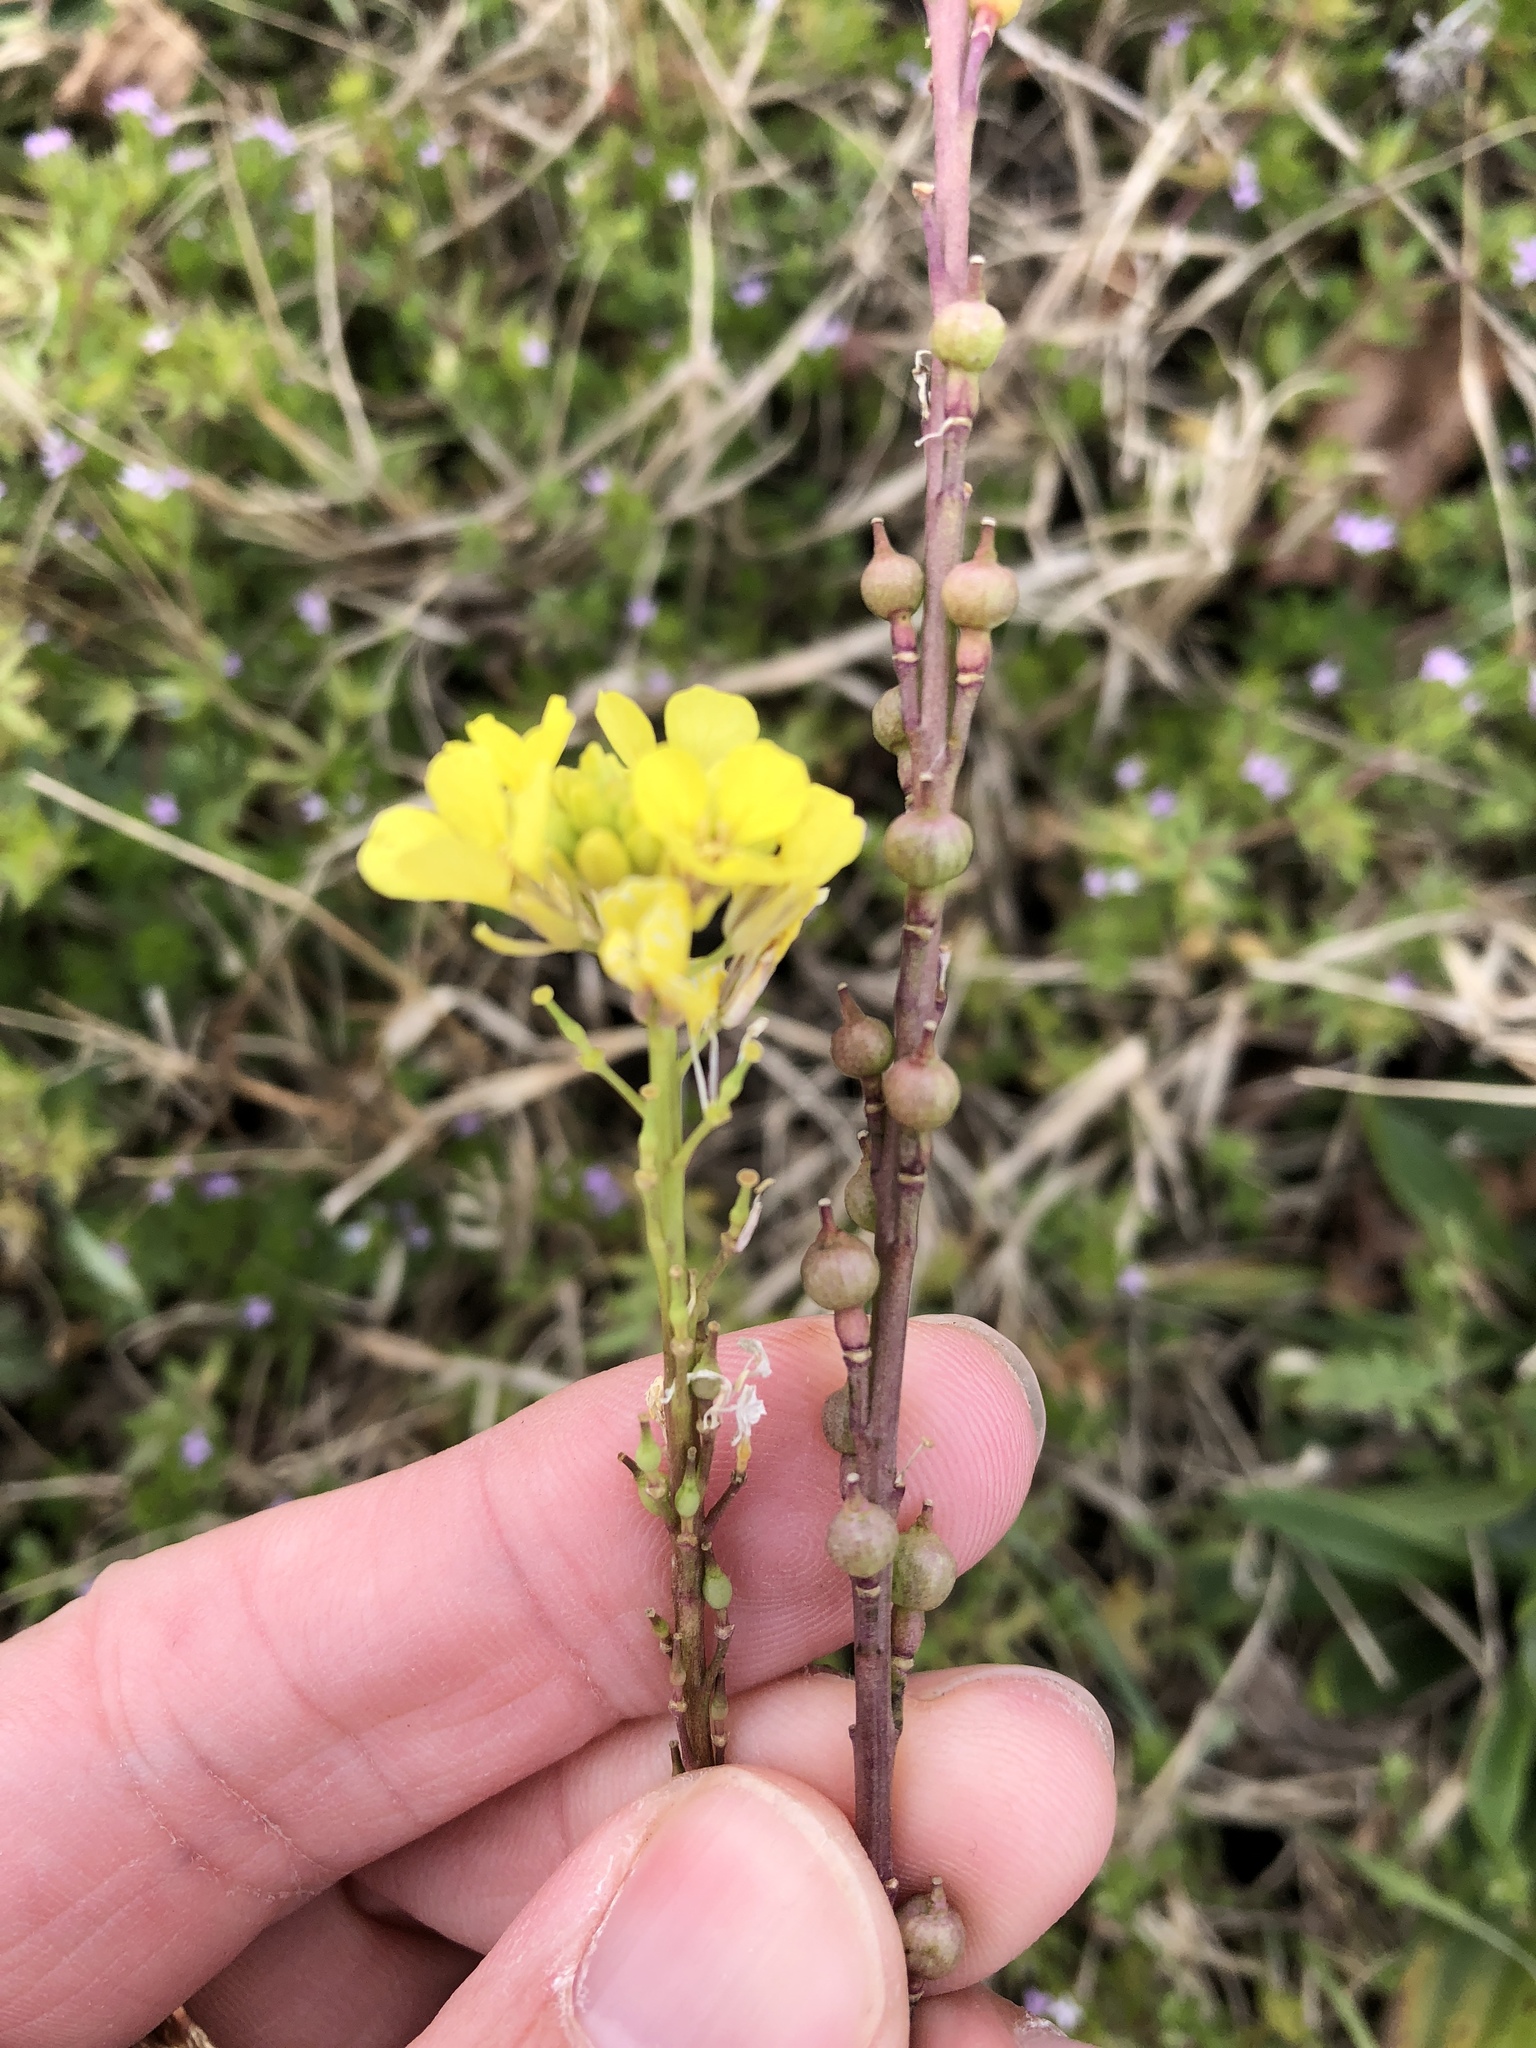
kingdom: Plantae
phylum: Tracheophyta
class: Magnoliopsida
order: Brassicales
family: Brassicaceae
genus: Rapistrum
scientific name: Rapistrum rugosum
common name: Annual bastardcabbage
